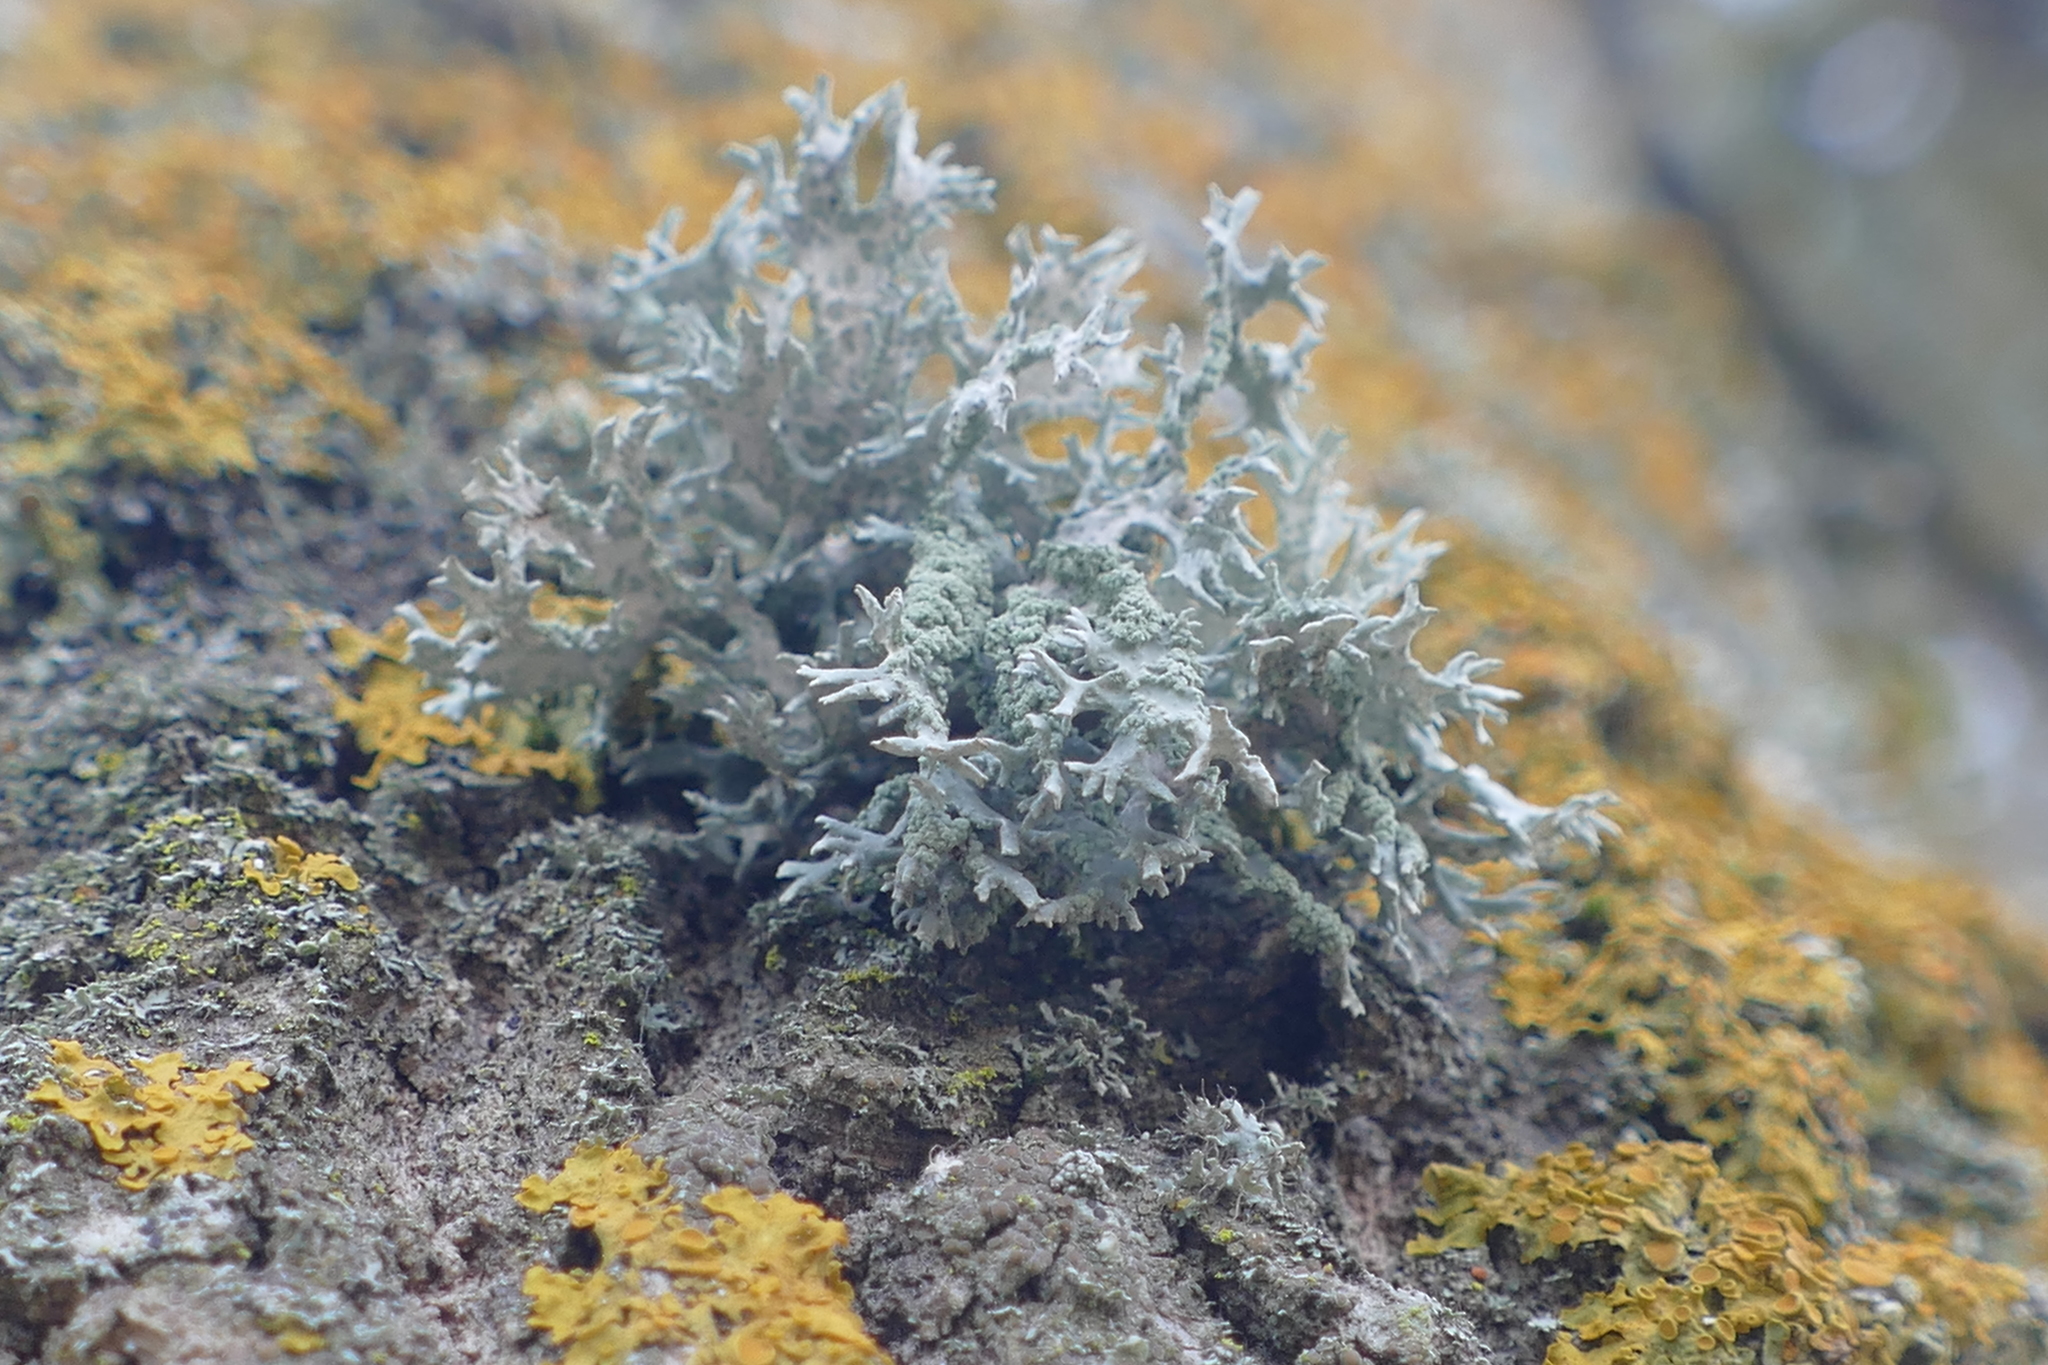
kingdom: Fungi
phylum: Ascomycota
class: Lecanoromycetes
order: Lecanorales
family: Parmeliaceae
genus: Evernia
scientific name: Evernia prunastri
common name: Oak moss
